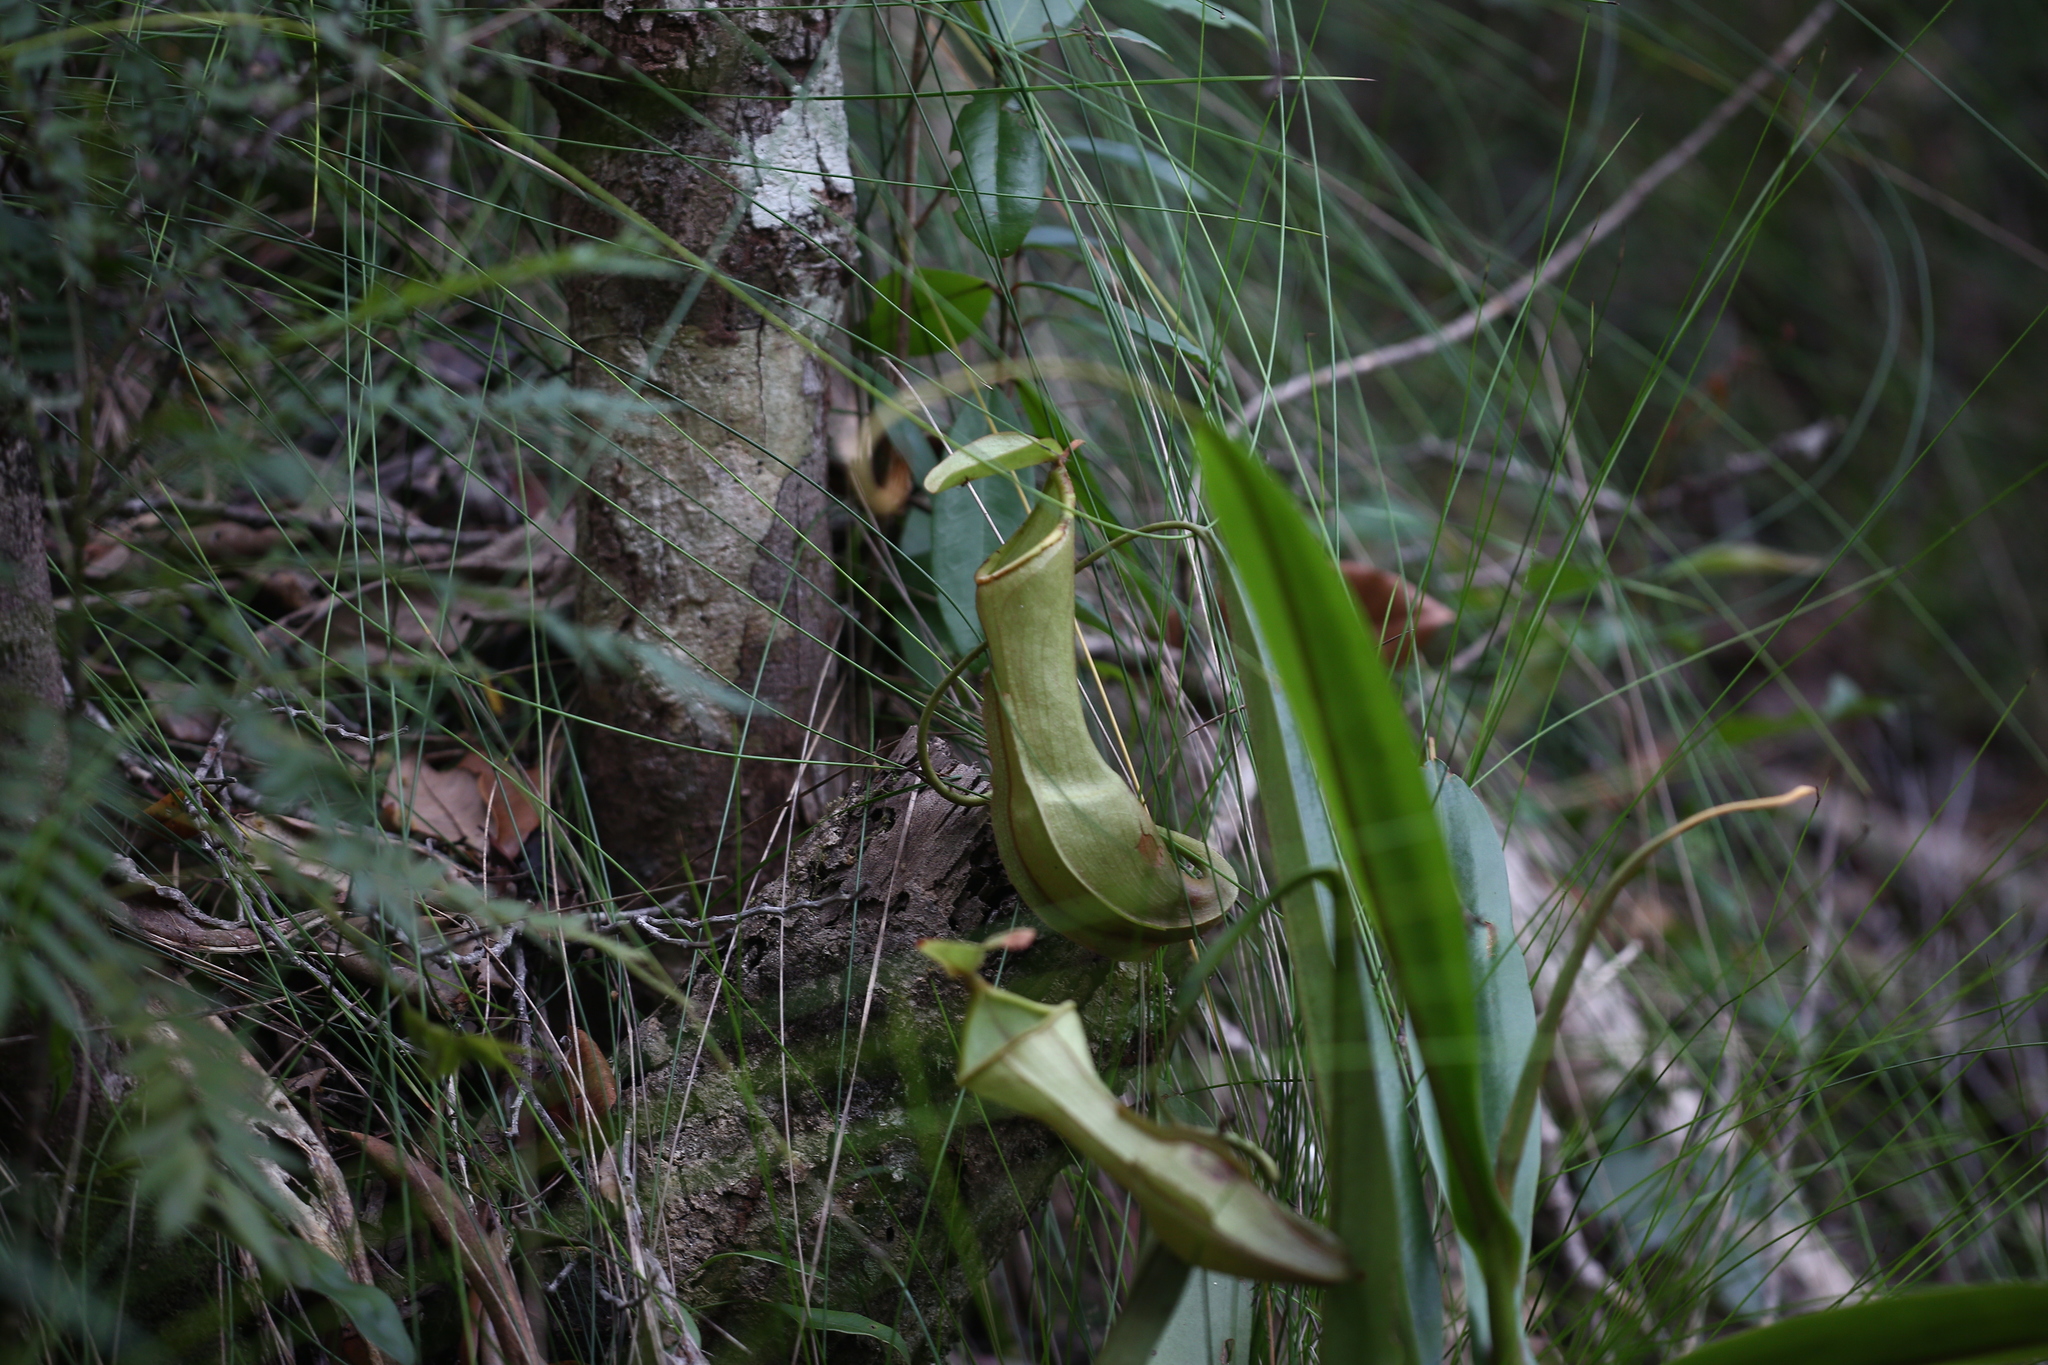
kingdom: Plantae
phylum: Tracheophyta
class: Magnoliopsida
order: Caryophyllales
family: Nepenthaceae
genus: Nepenthes
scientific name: Nepenthes vieillardii
